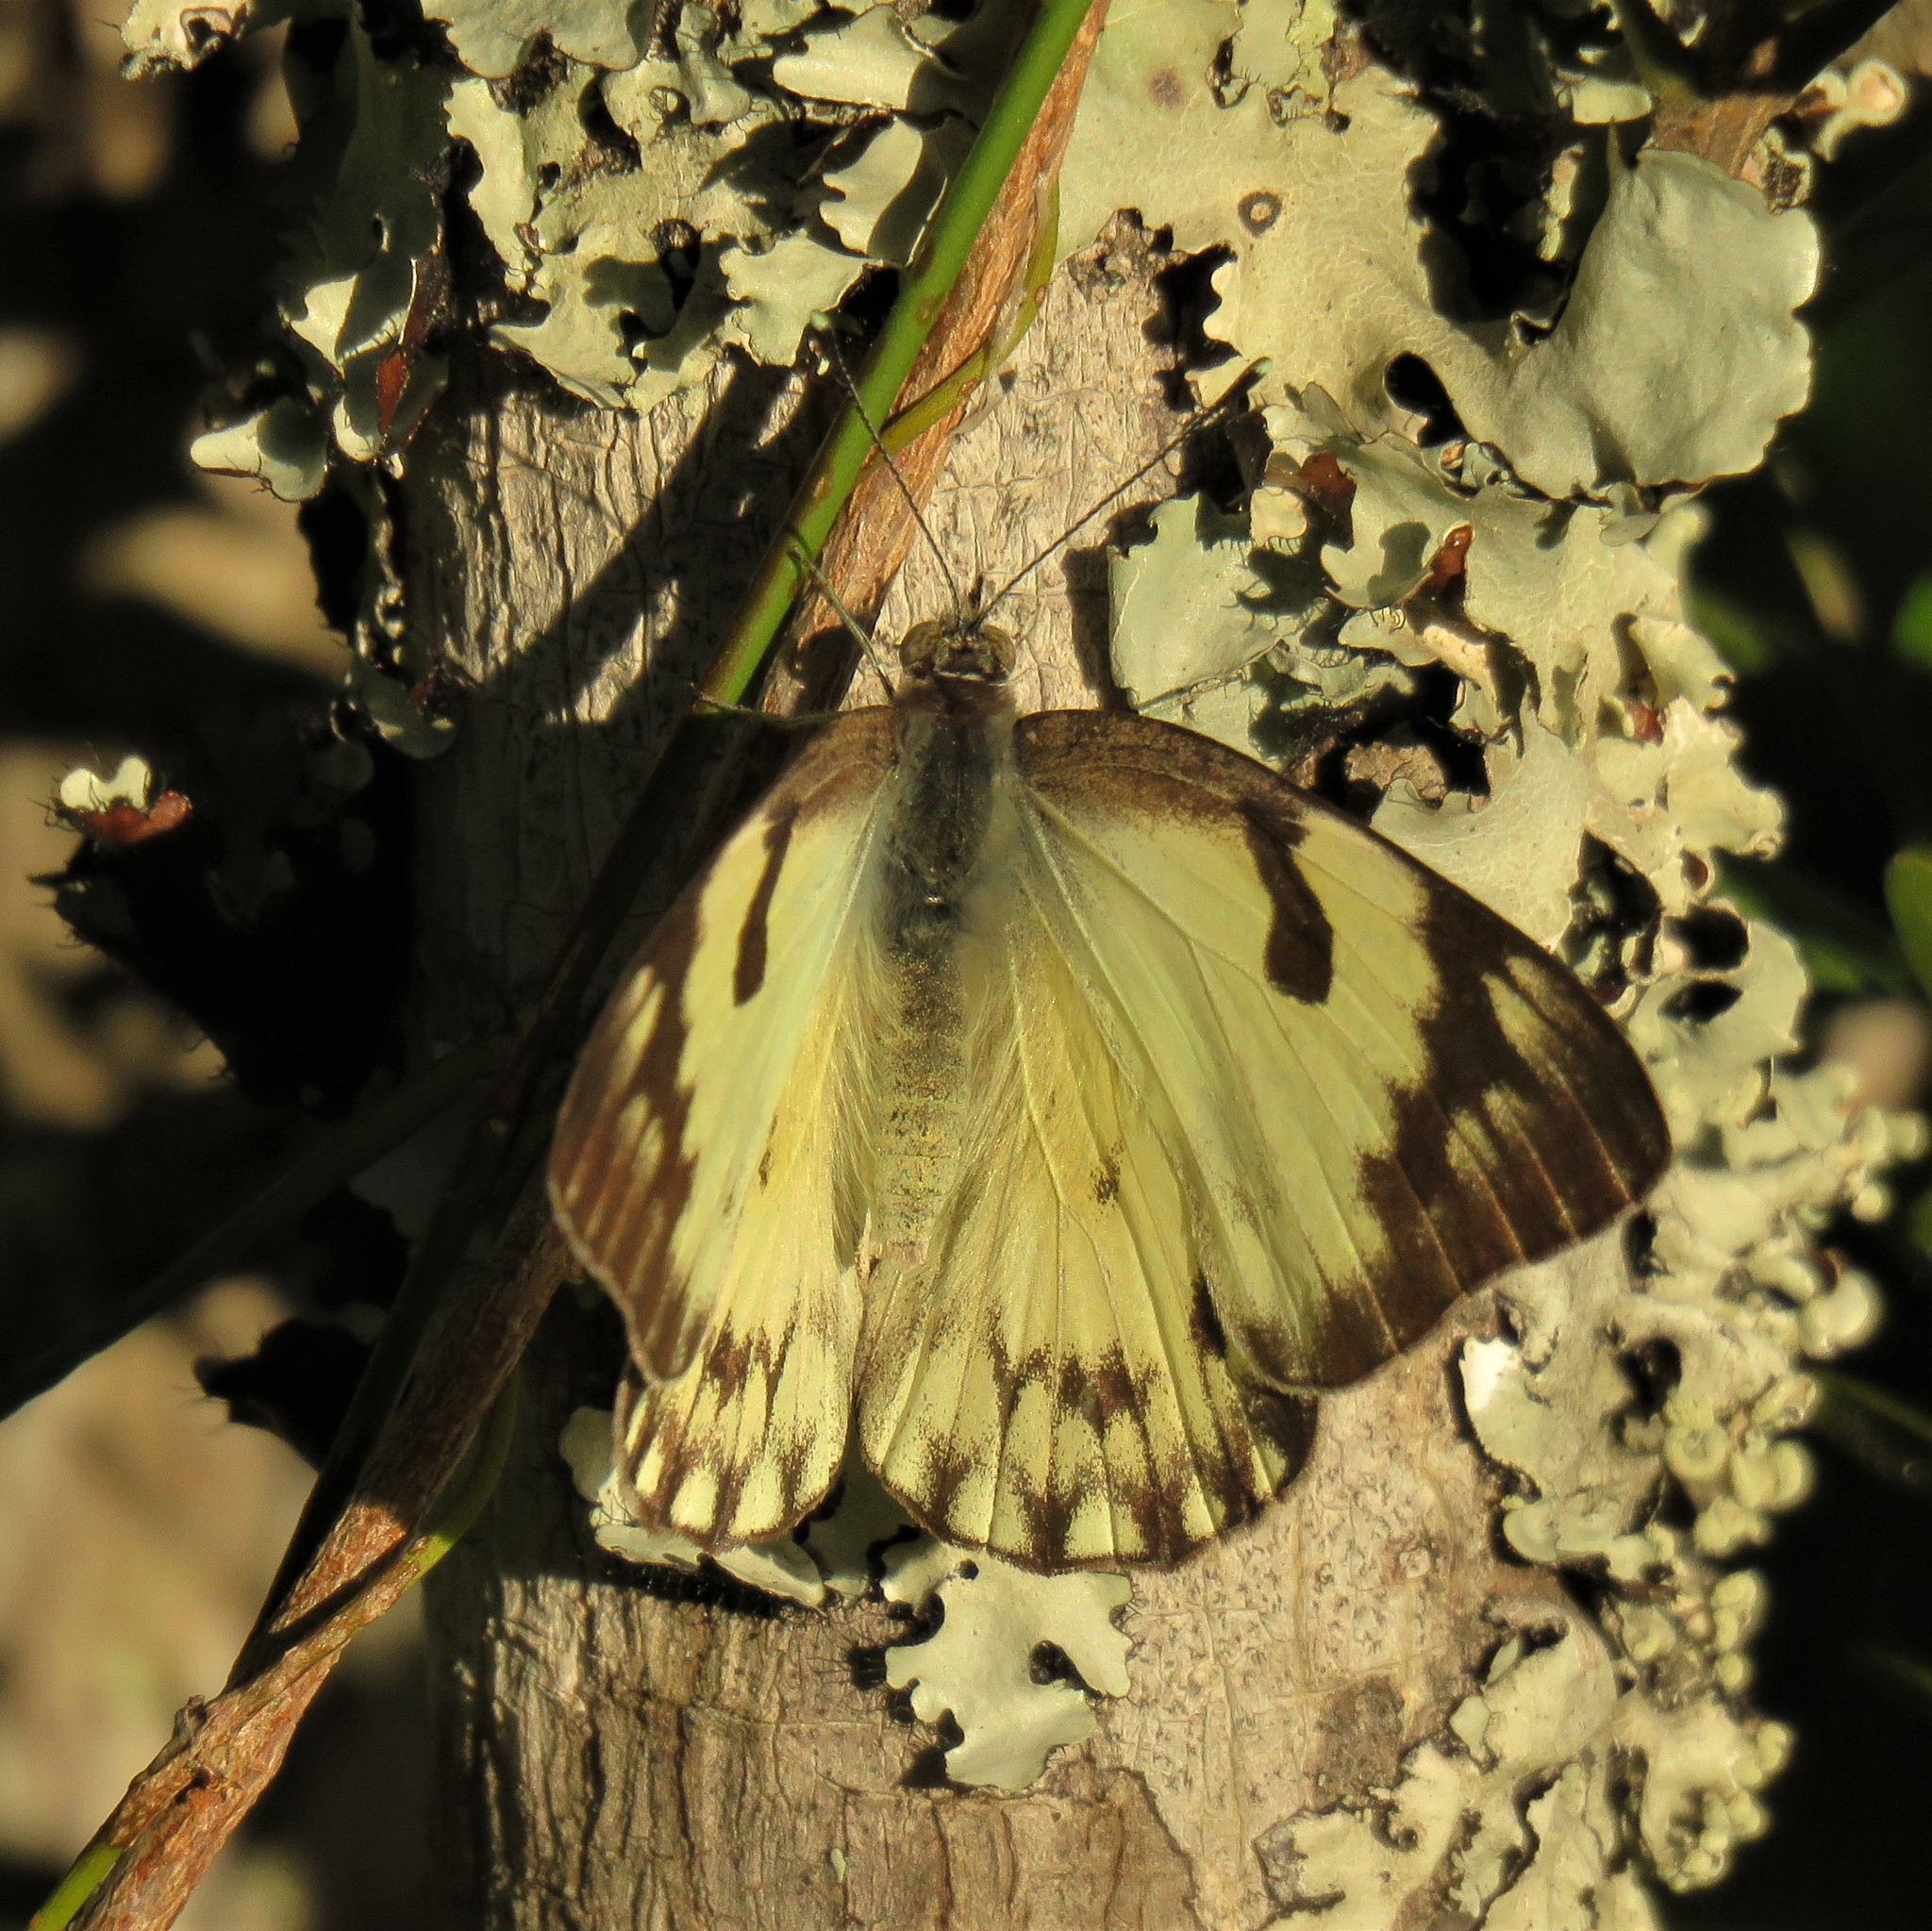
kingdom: Animalia
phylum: Arthropoda
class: Insecta
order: Lepidoptera
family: Pieridae
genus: Belenois
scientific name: Belenois gidica
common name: Pointed caper white
